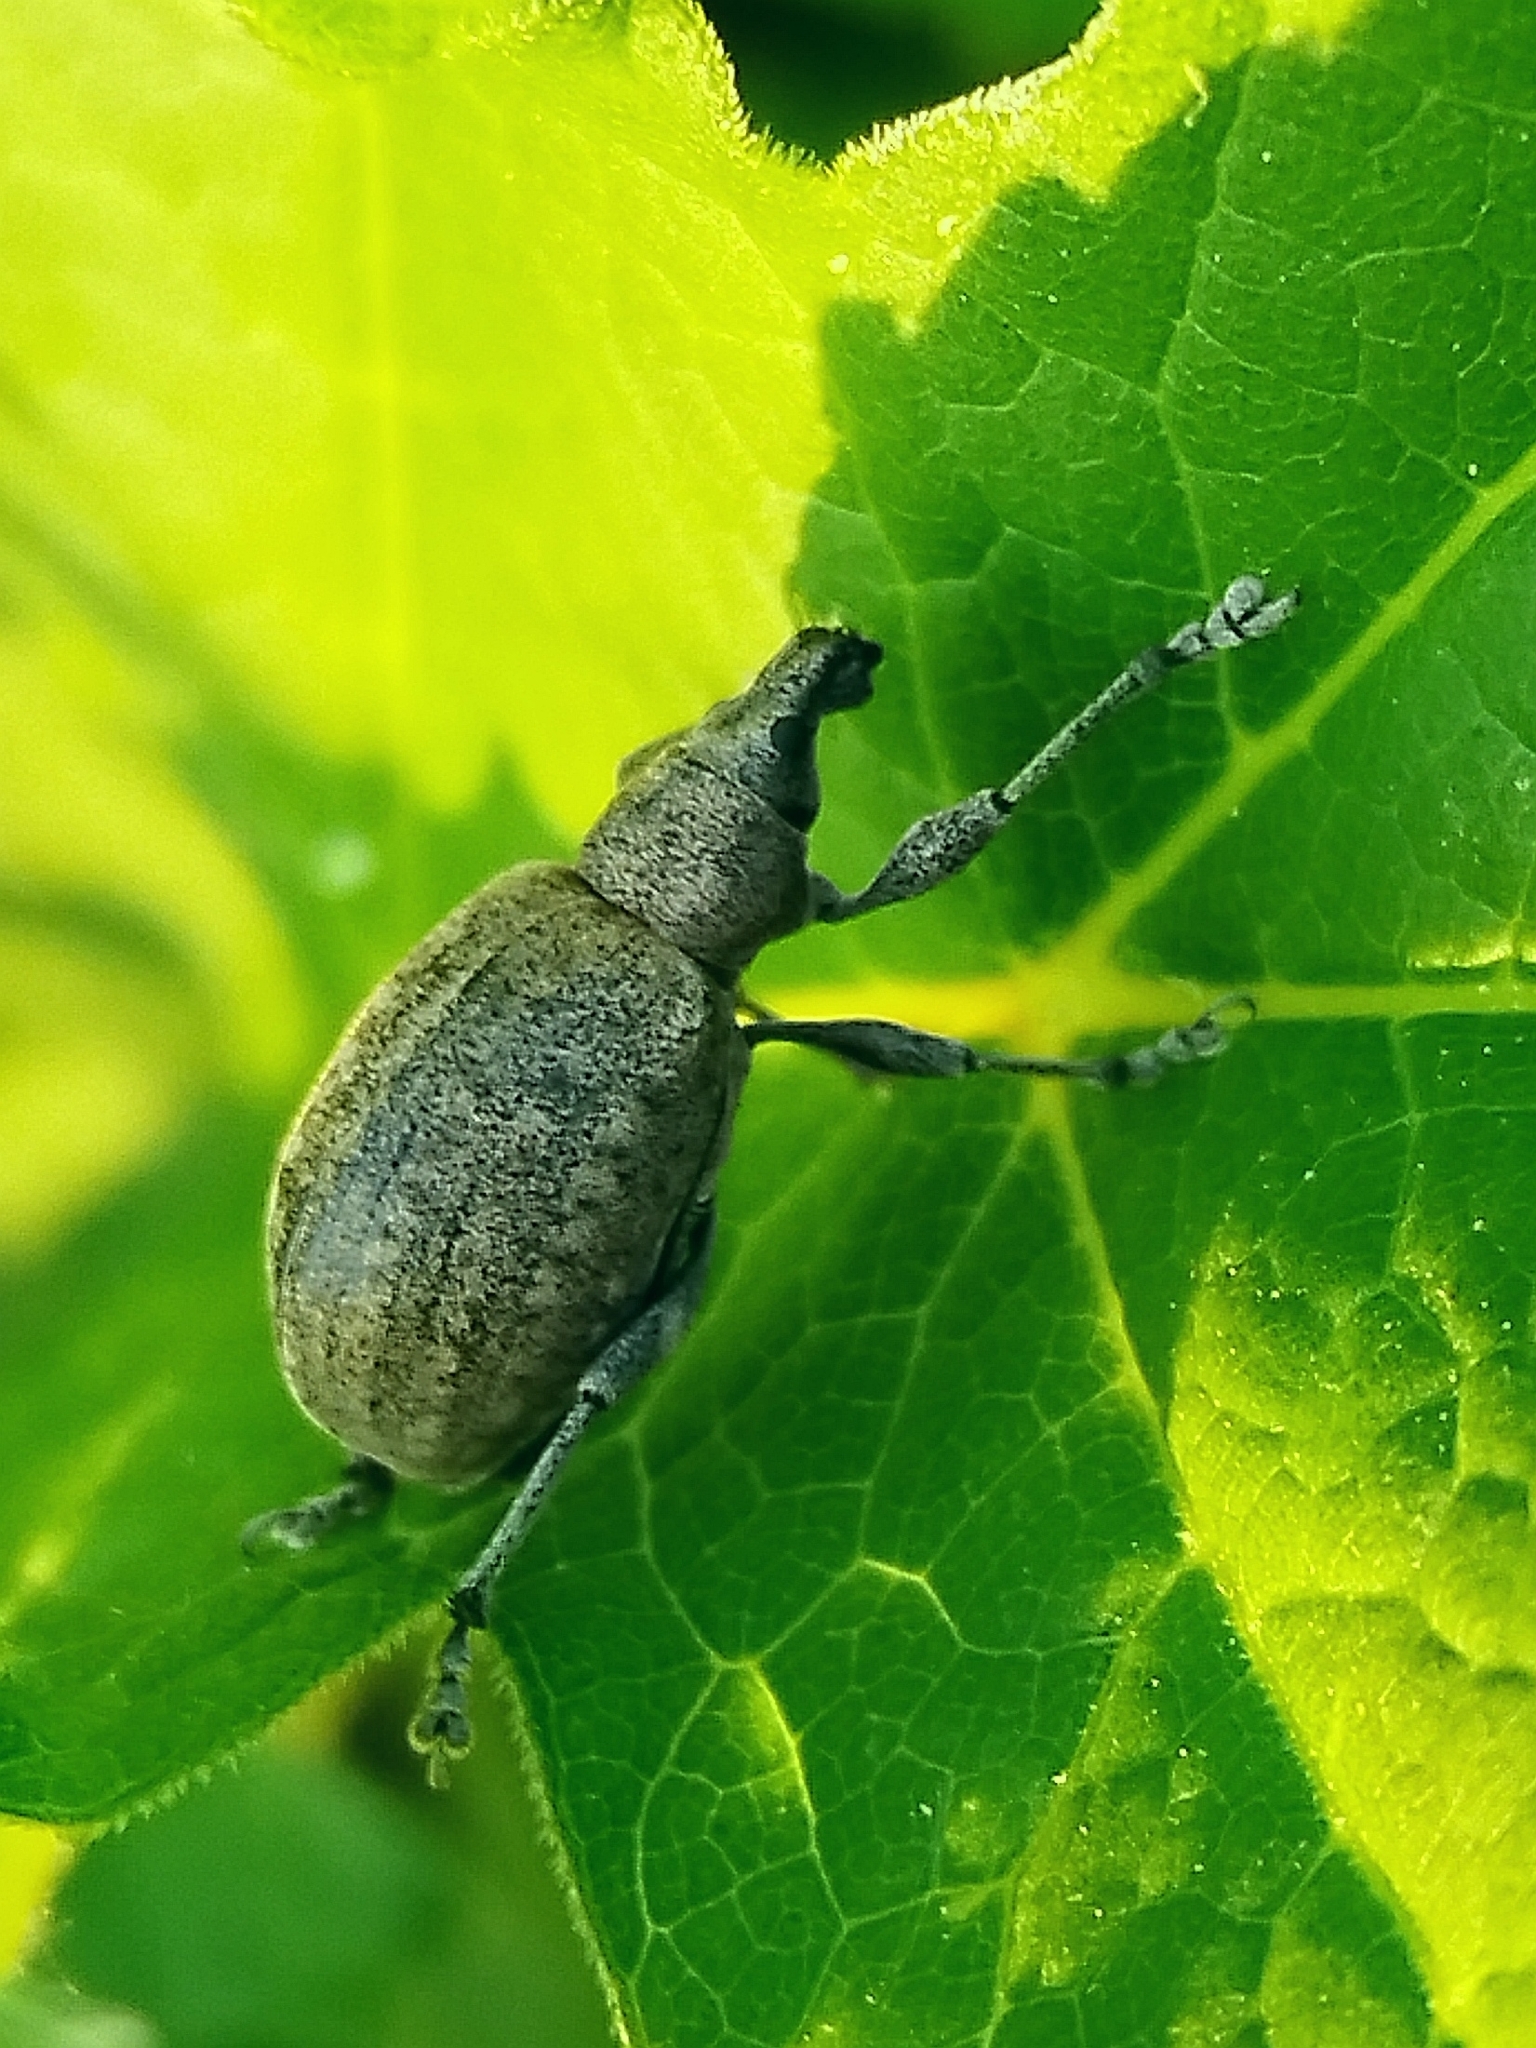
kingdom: Animalia
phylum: Arthropoda
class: Insecta
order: Coleoptera
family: Curculionidae
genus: Liophloeus
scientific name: Liophloeus tessulatus
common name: Weevil
